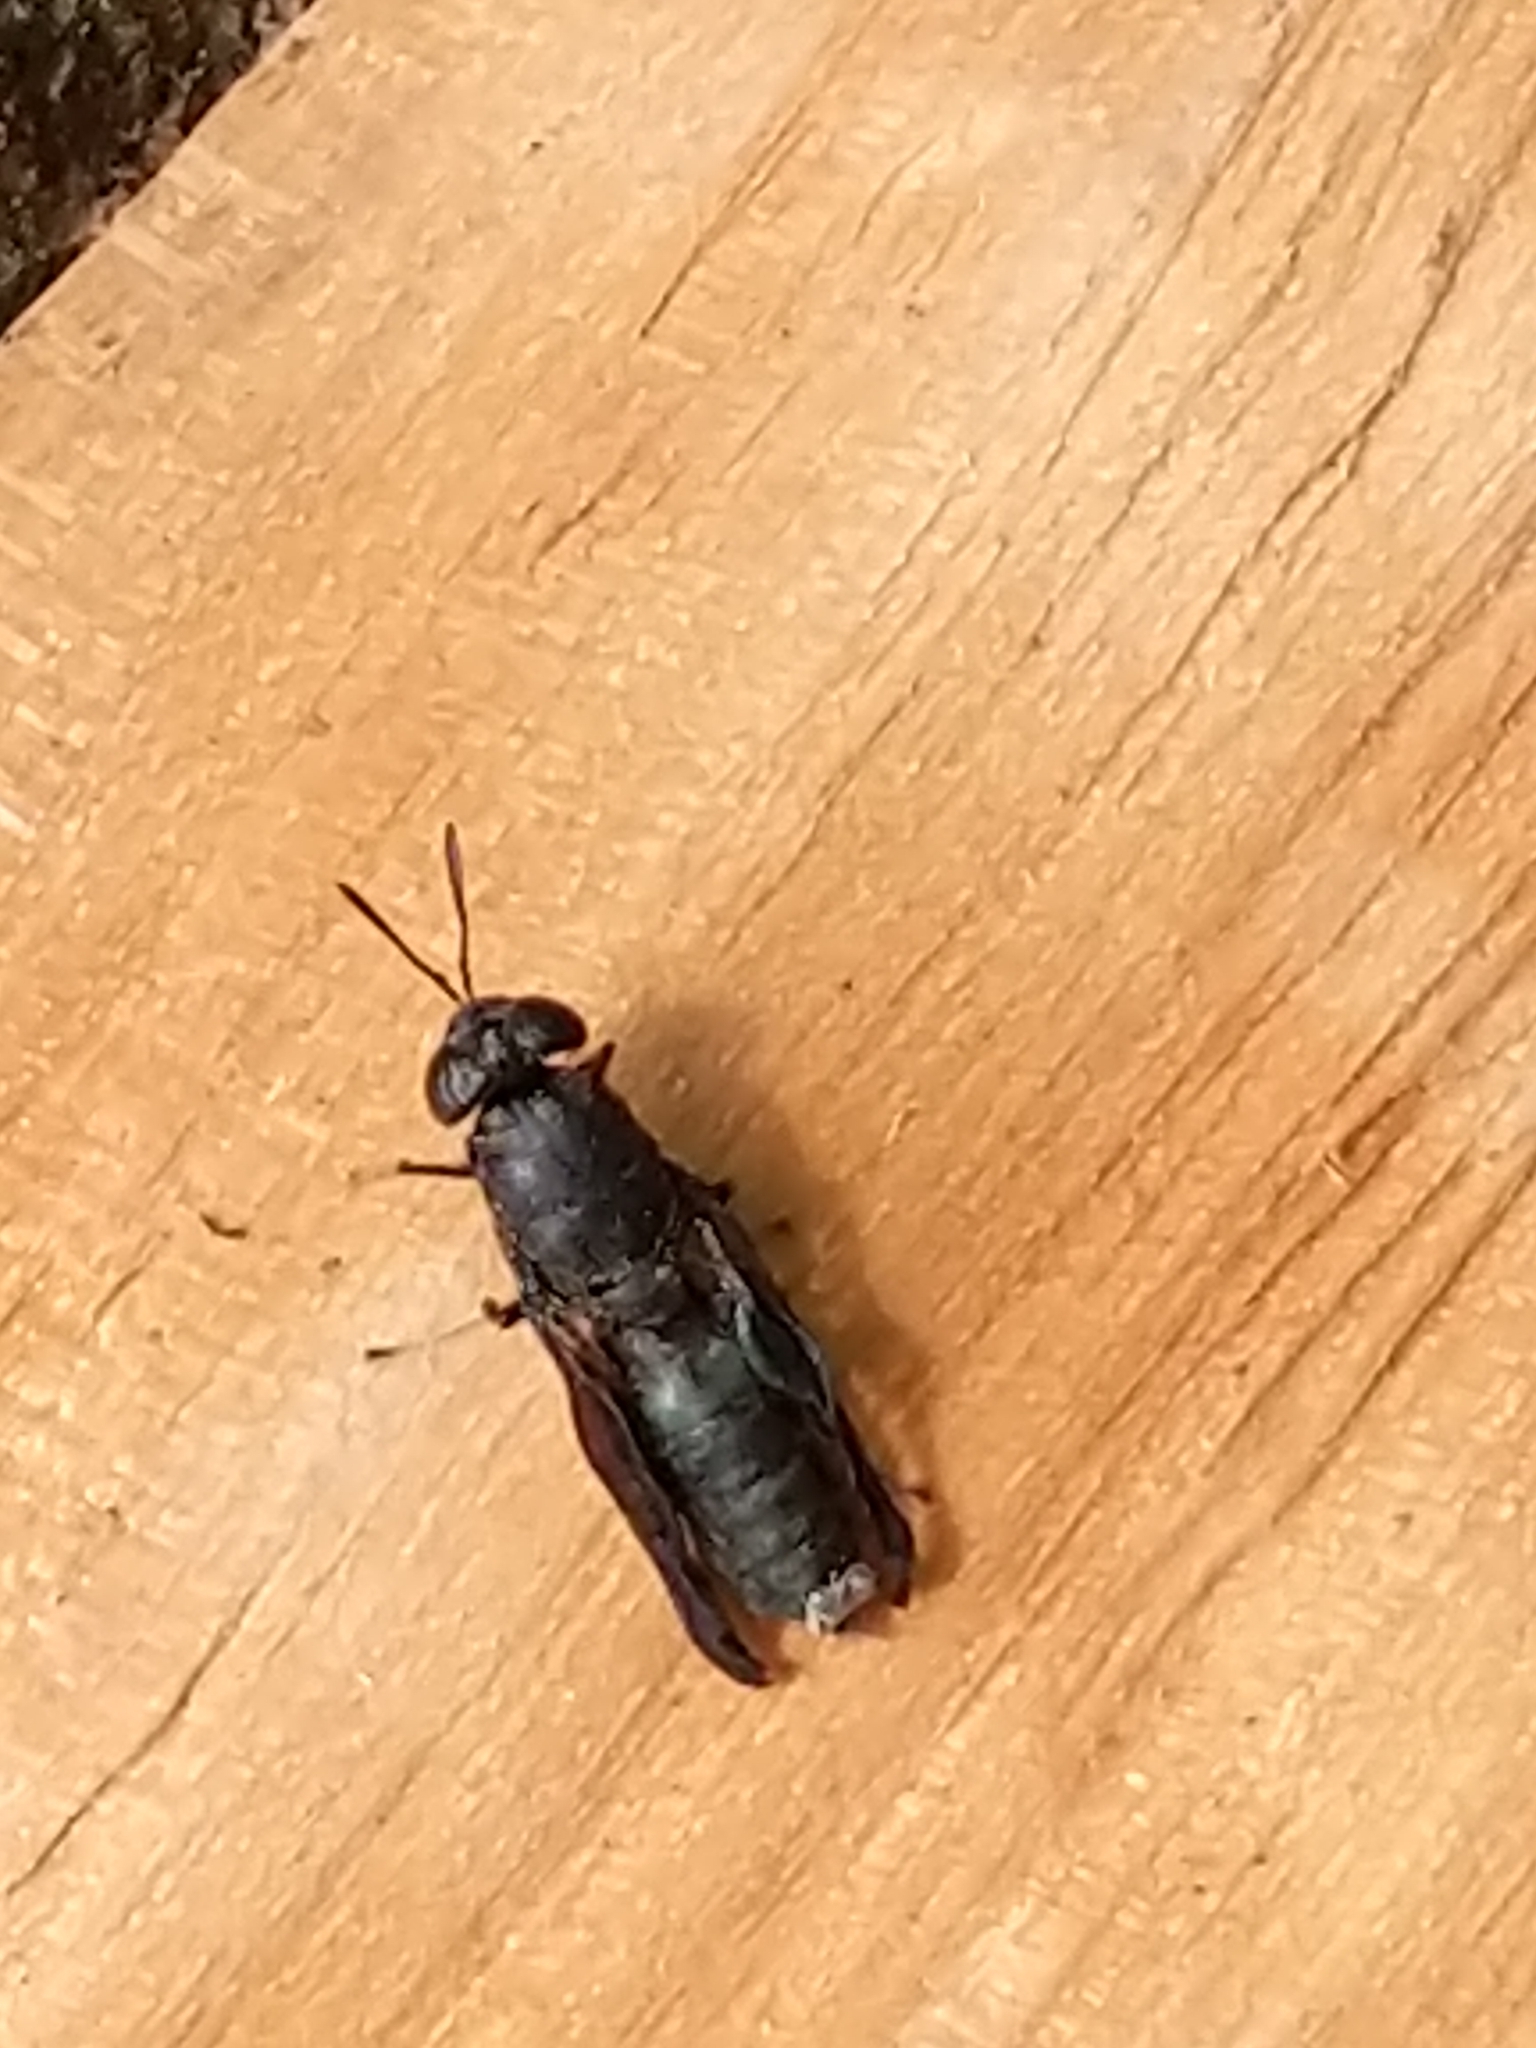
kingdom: Animalia
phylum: Arthropoda
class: Insecta
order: Diptera
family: Stratiomyidae
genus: Hermetia
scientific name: Hermetia illucens
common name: Black soldier fly
